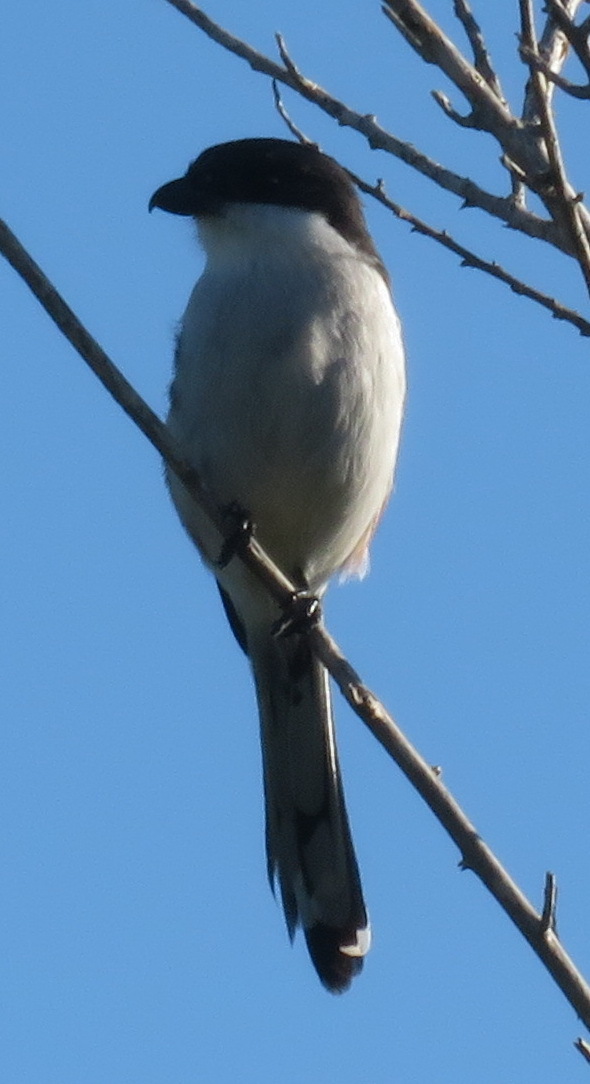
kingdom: Animalia
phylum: Chordata
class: Aves
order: Passeriformes
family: Laniidae
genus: Lanius
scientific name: Lanius collaris
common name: Southern fiscal
